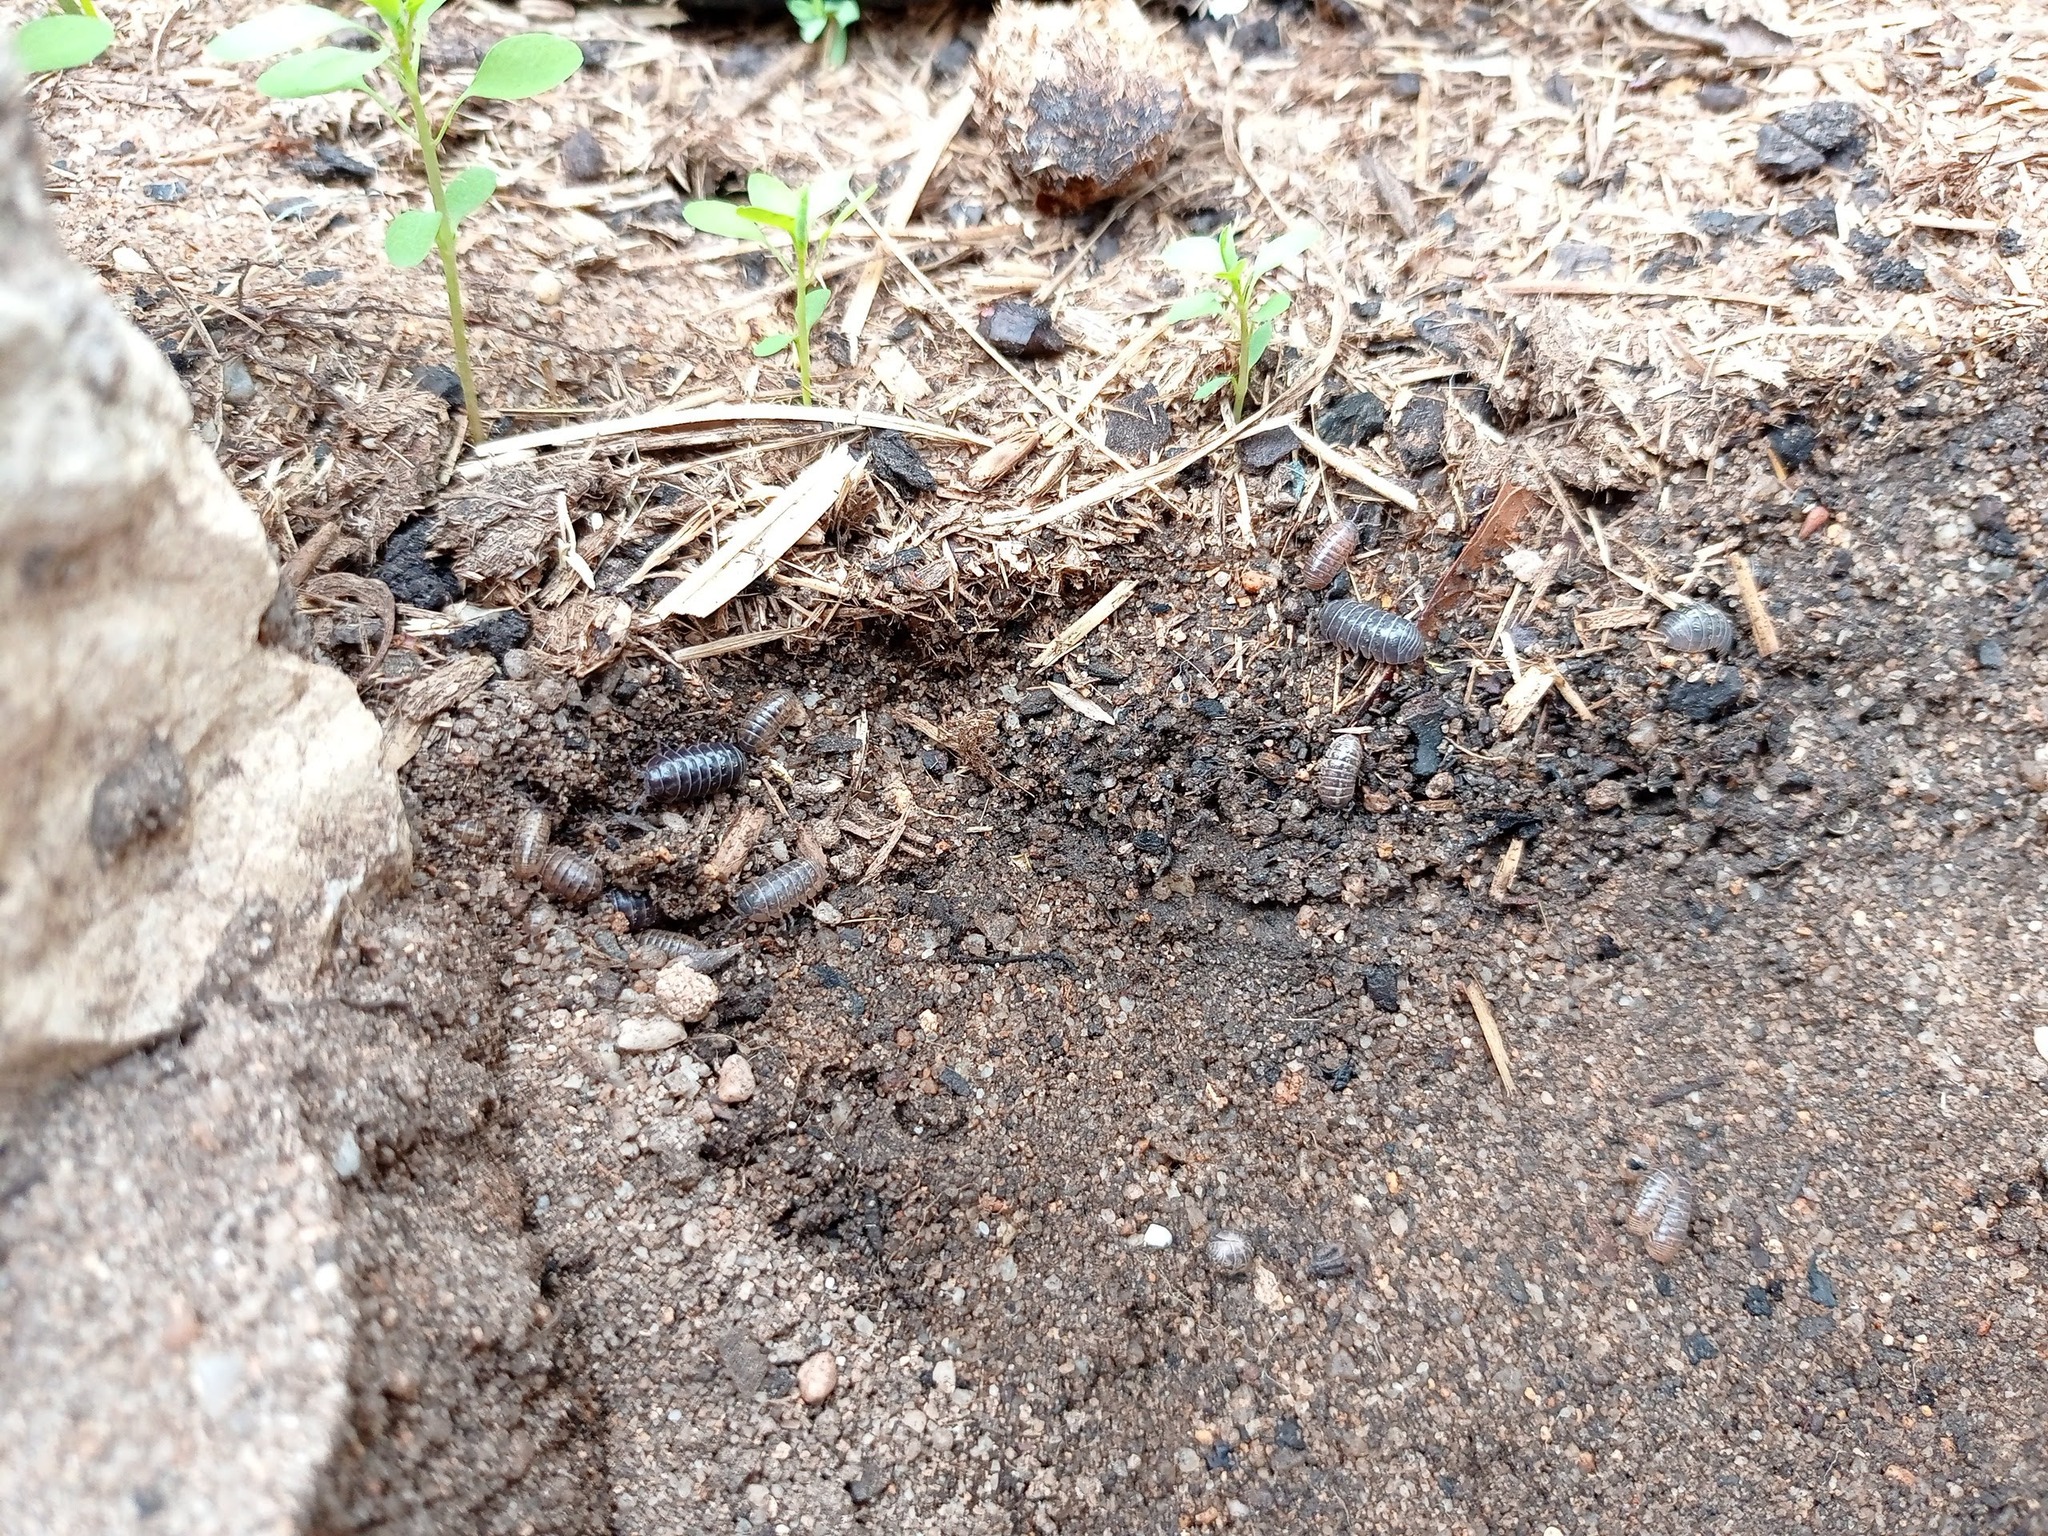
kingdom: Animalia
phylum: Arthropoda
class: Malacostraca
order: Isopoda
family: Armadillidiidae
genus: Armadillidium
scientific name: Armadillidium vulgare
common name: Common pill woodlouse
